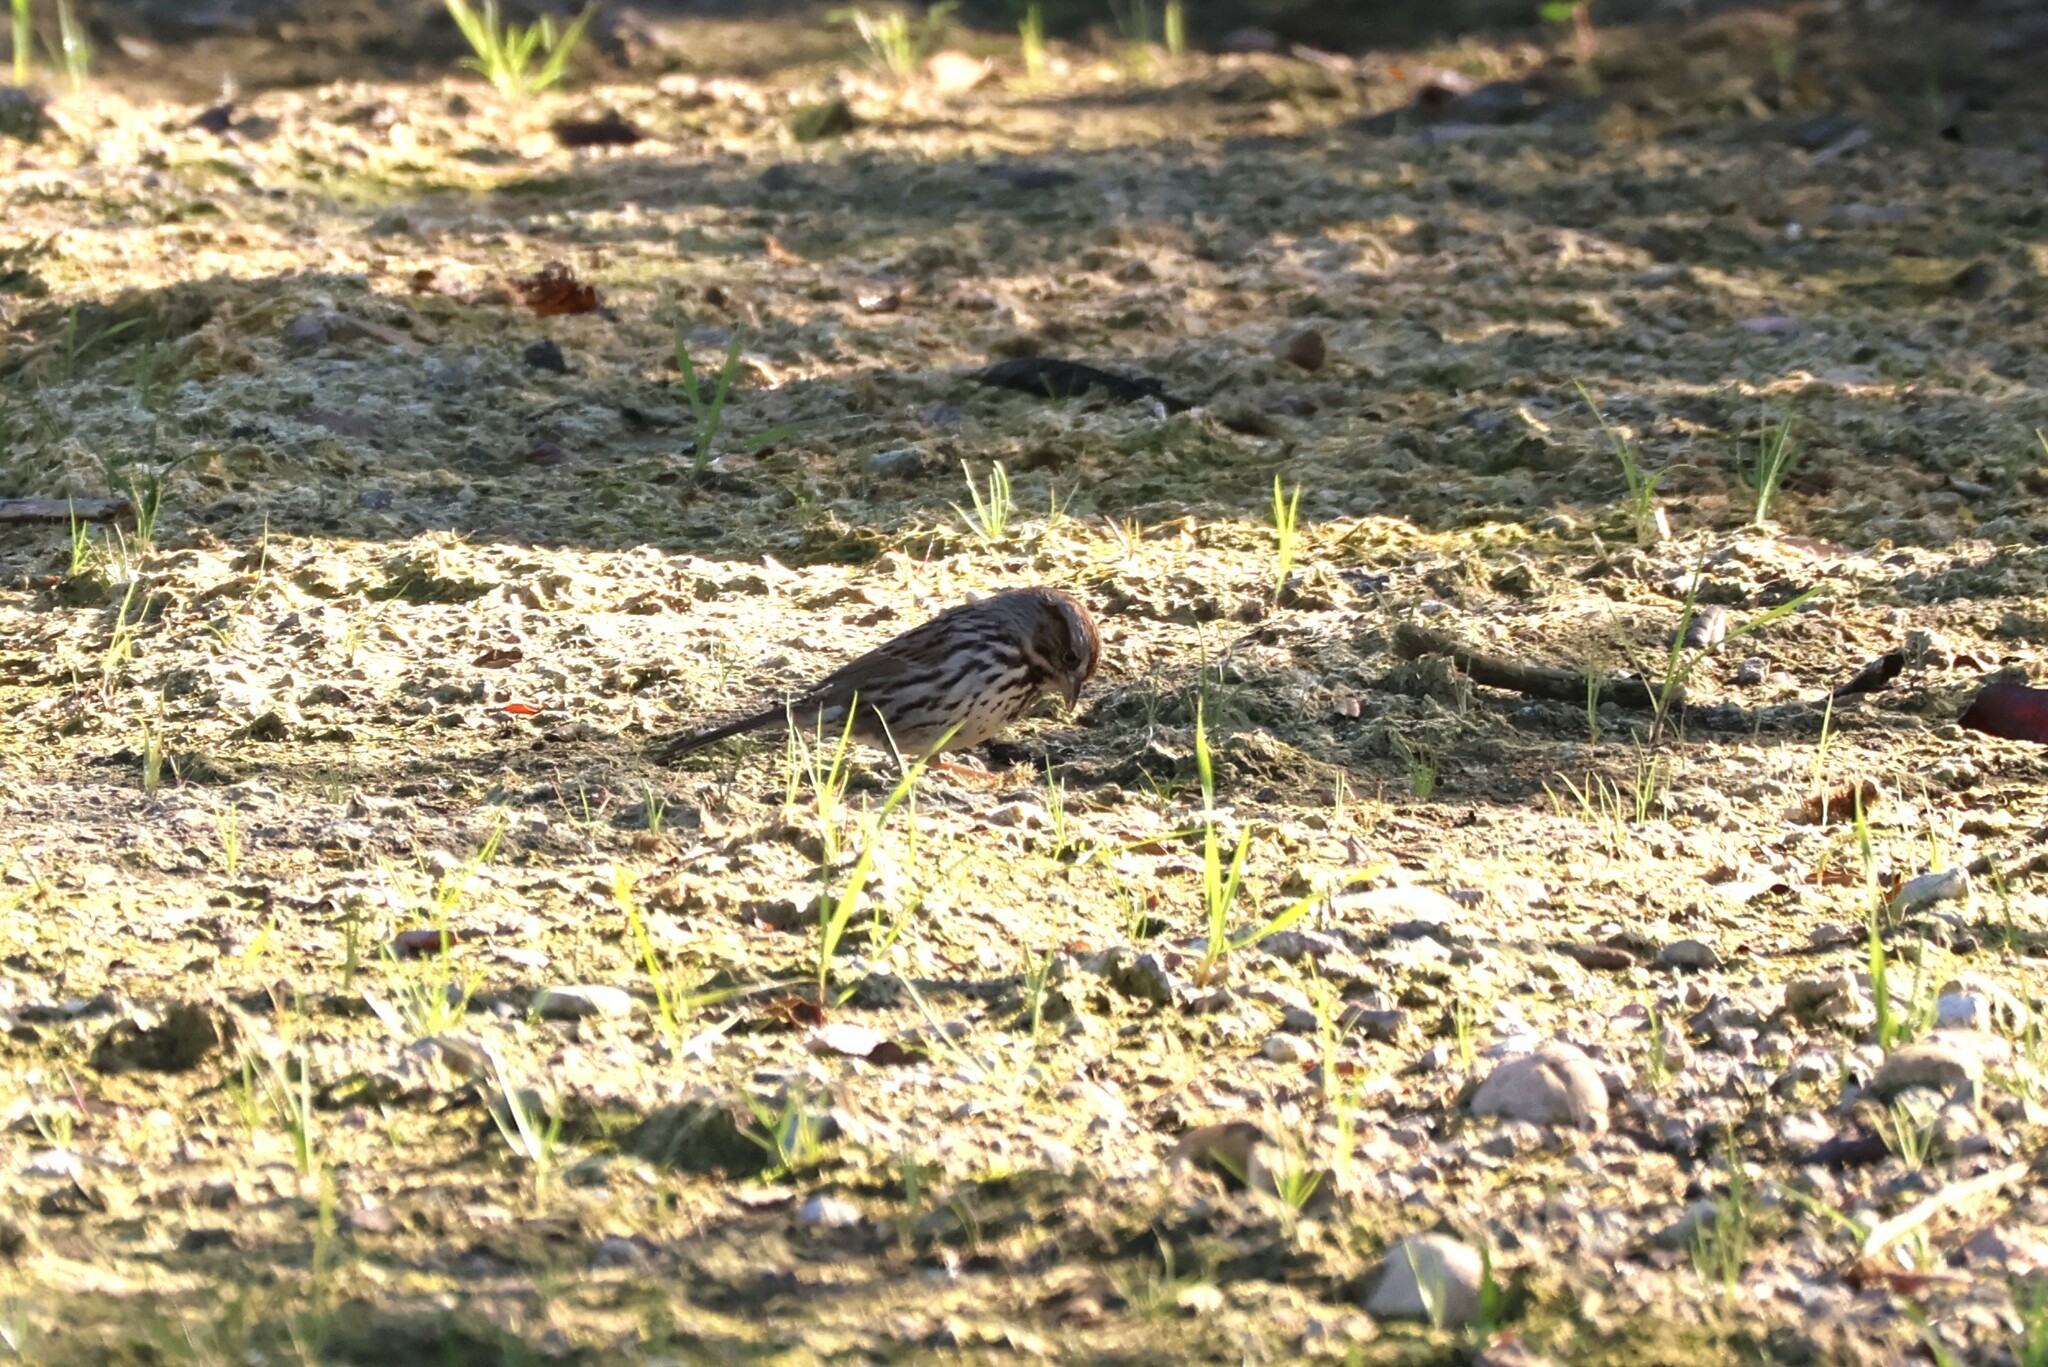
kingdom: Animalia
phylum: Chordata
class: Aves
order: Passeriformes
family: Passerellidae
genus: Melospiza
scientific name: Melospiza melodia
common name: Song sparrow
